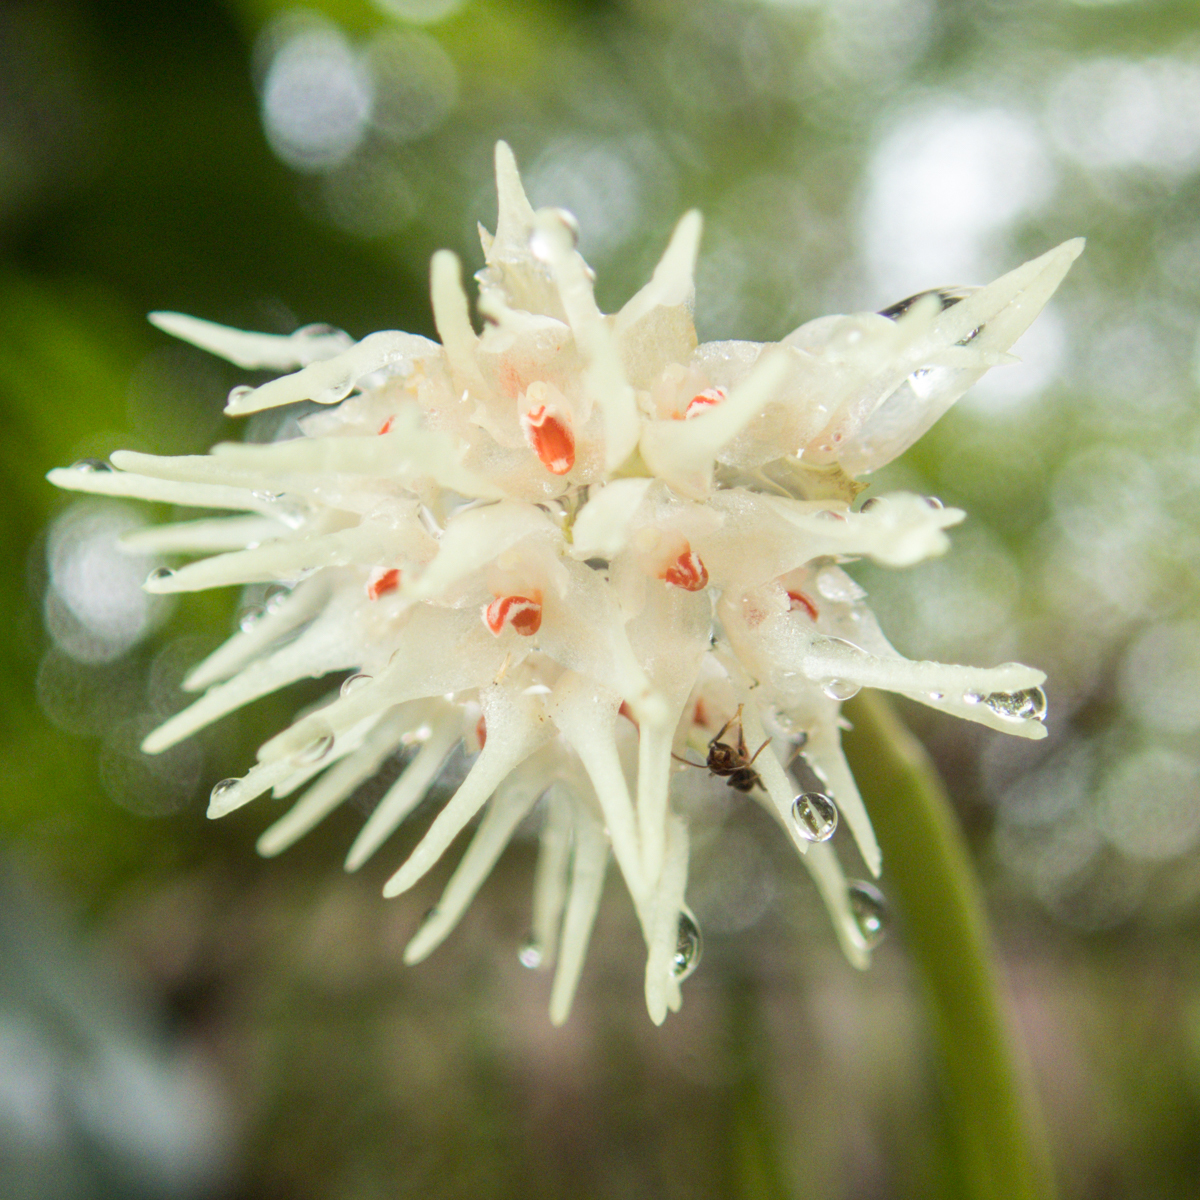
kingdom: Plantae
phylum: Tracheophyta
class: Liliopsida
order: Asparagales
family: Orchidaceae
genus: Bulbophyllum
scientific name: Bulbophyllum odoratissimum
